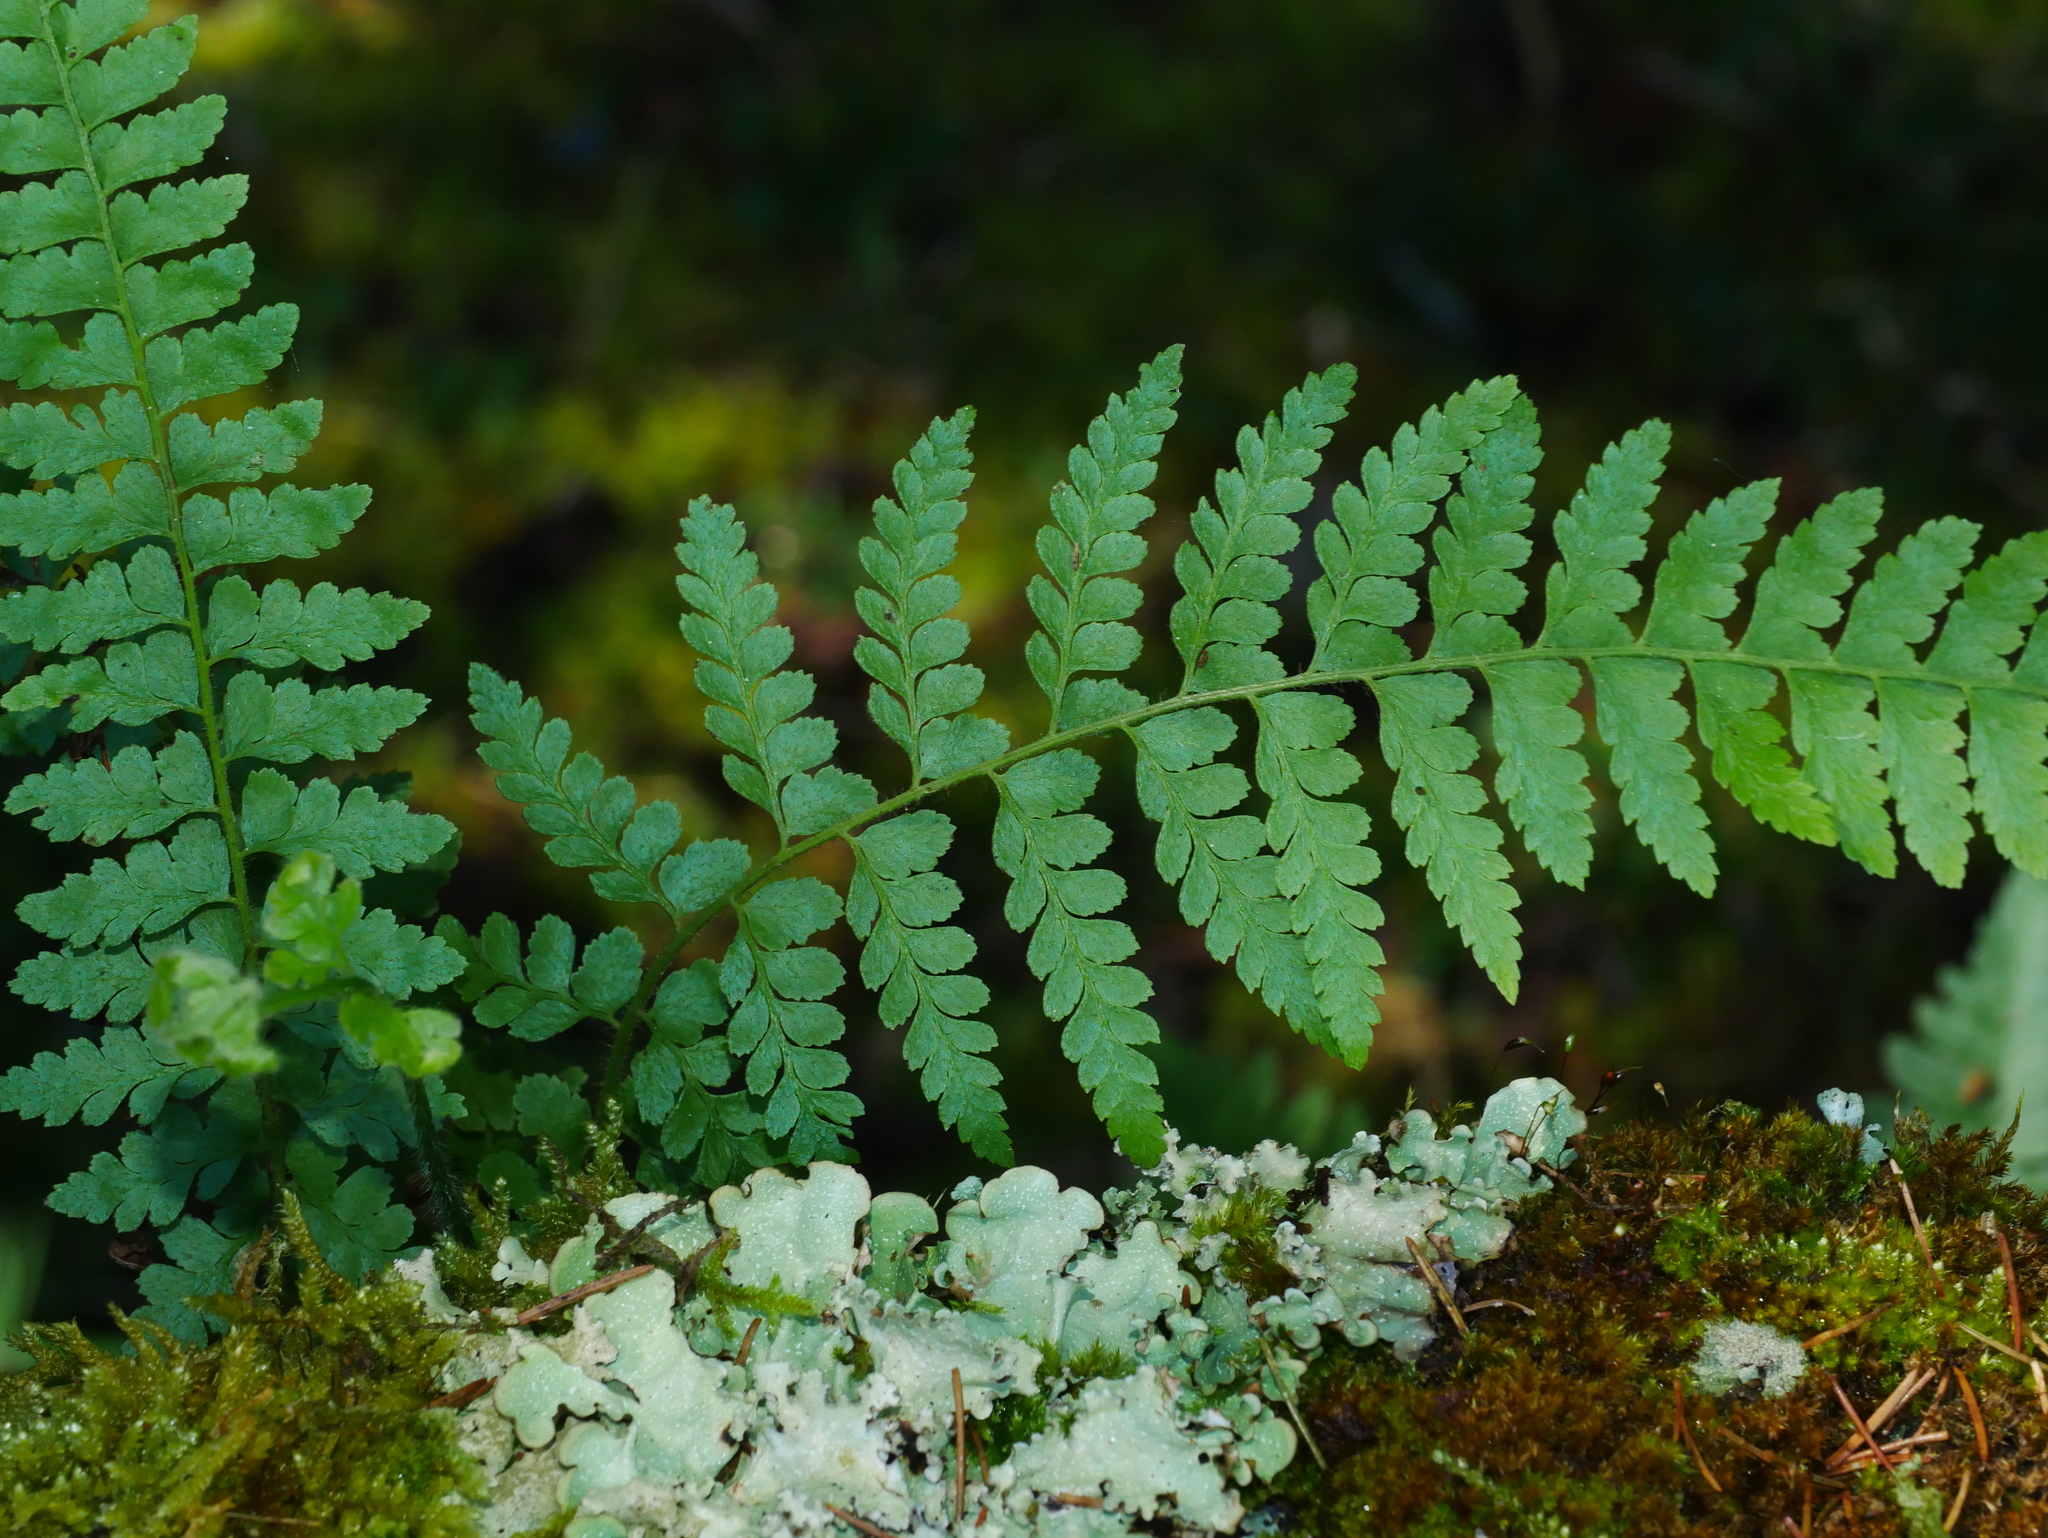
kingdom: Plantae
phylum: Tracheophyta
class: Polypodiopsida
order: Polypodiales
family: Dennstaedtiaceae
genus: Microlepia
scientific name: Microlepia strigosa
